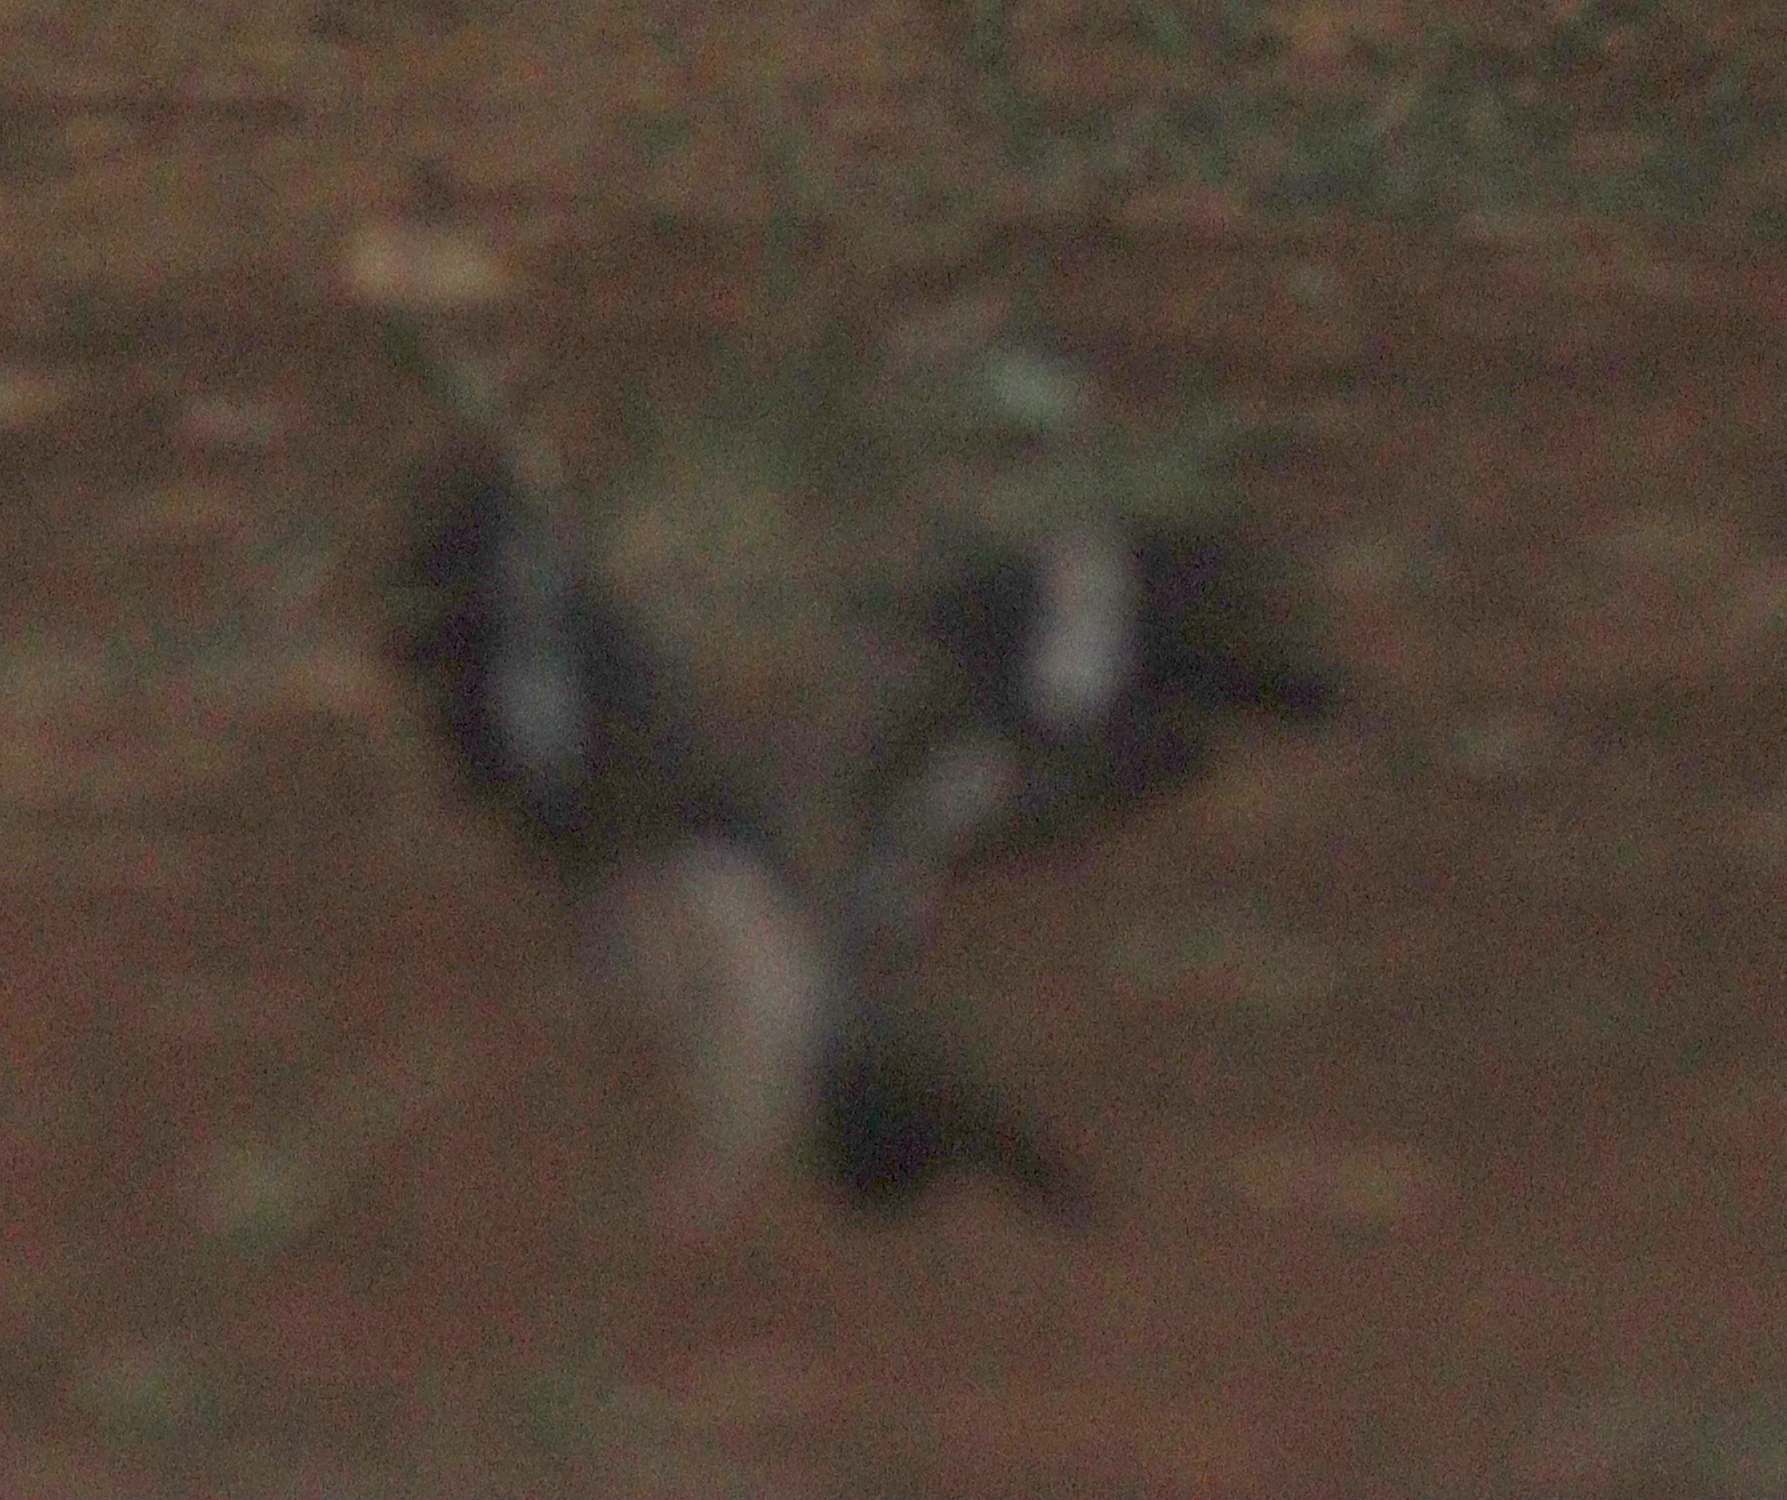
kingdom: Animalia
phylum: Chordata
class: Aves
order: Caprimulgiformes
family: Caprimulgidae
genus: Caprimulgus
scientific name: Caprimulgus donaldsoni
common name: Donaldson-smith's nightjar
